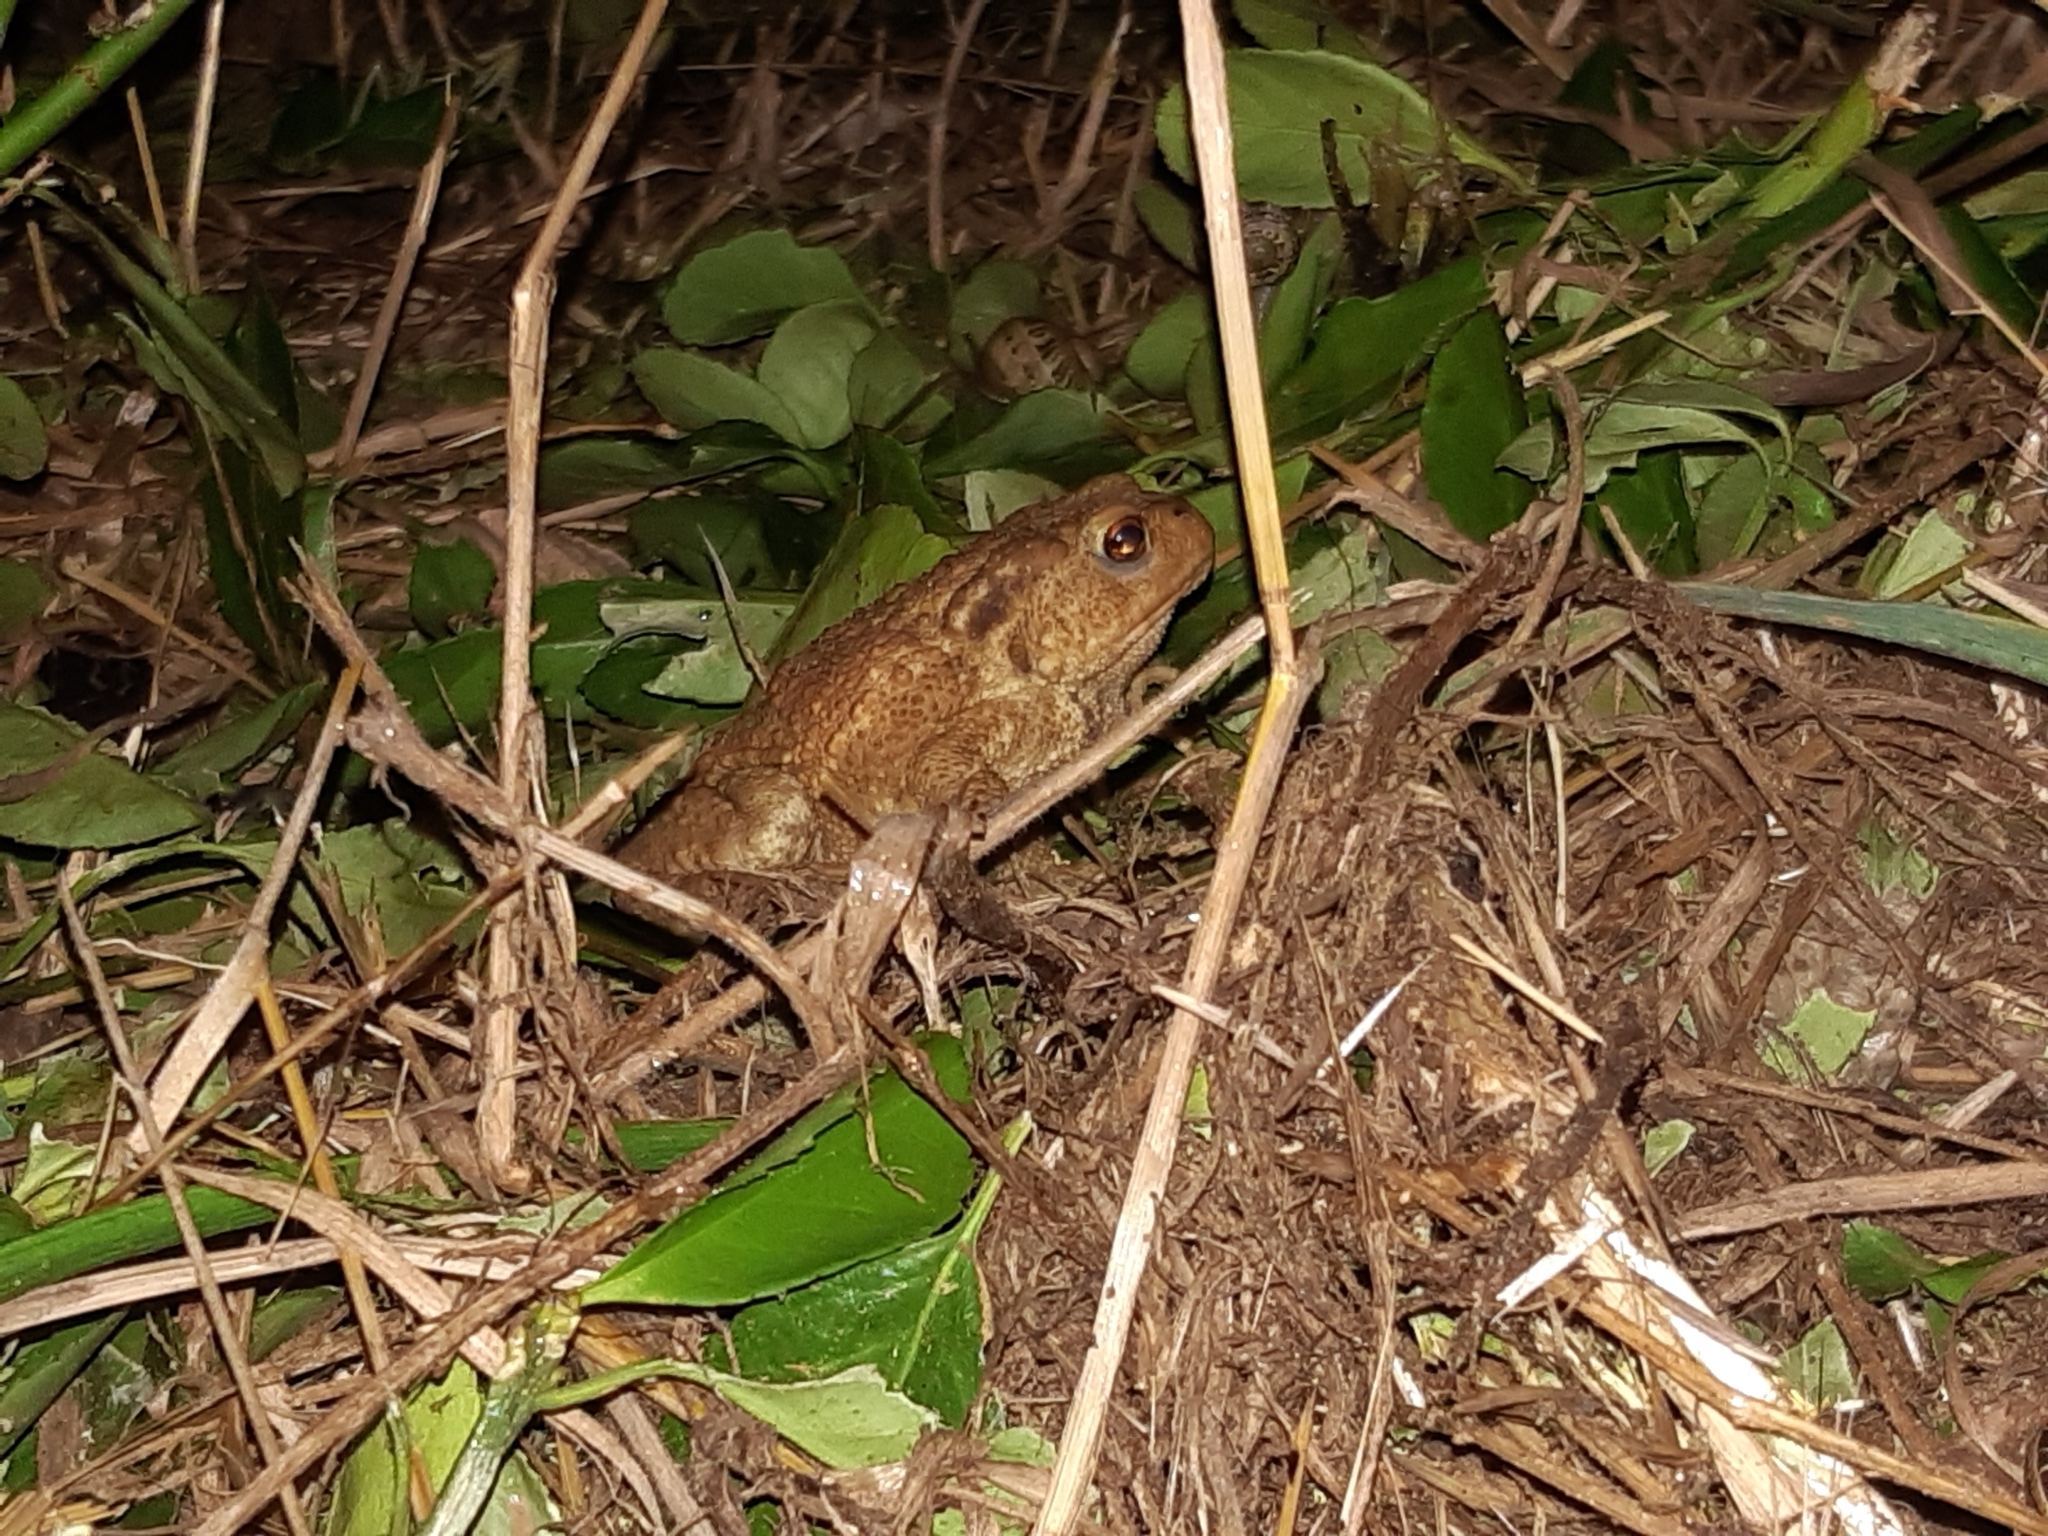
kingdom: Animalia
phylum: Chordata
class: Amphibia
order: Anura
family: Bufonidae
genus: Bufo
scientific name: Bufo spinosus
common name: Western common toad
